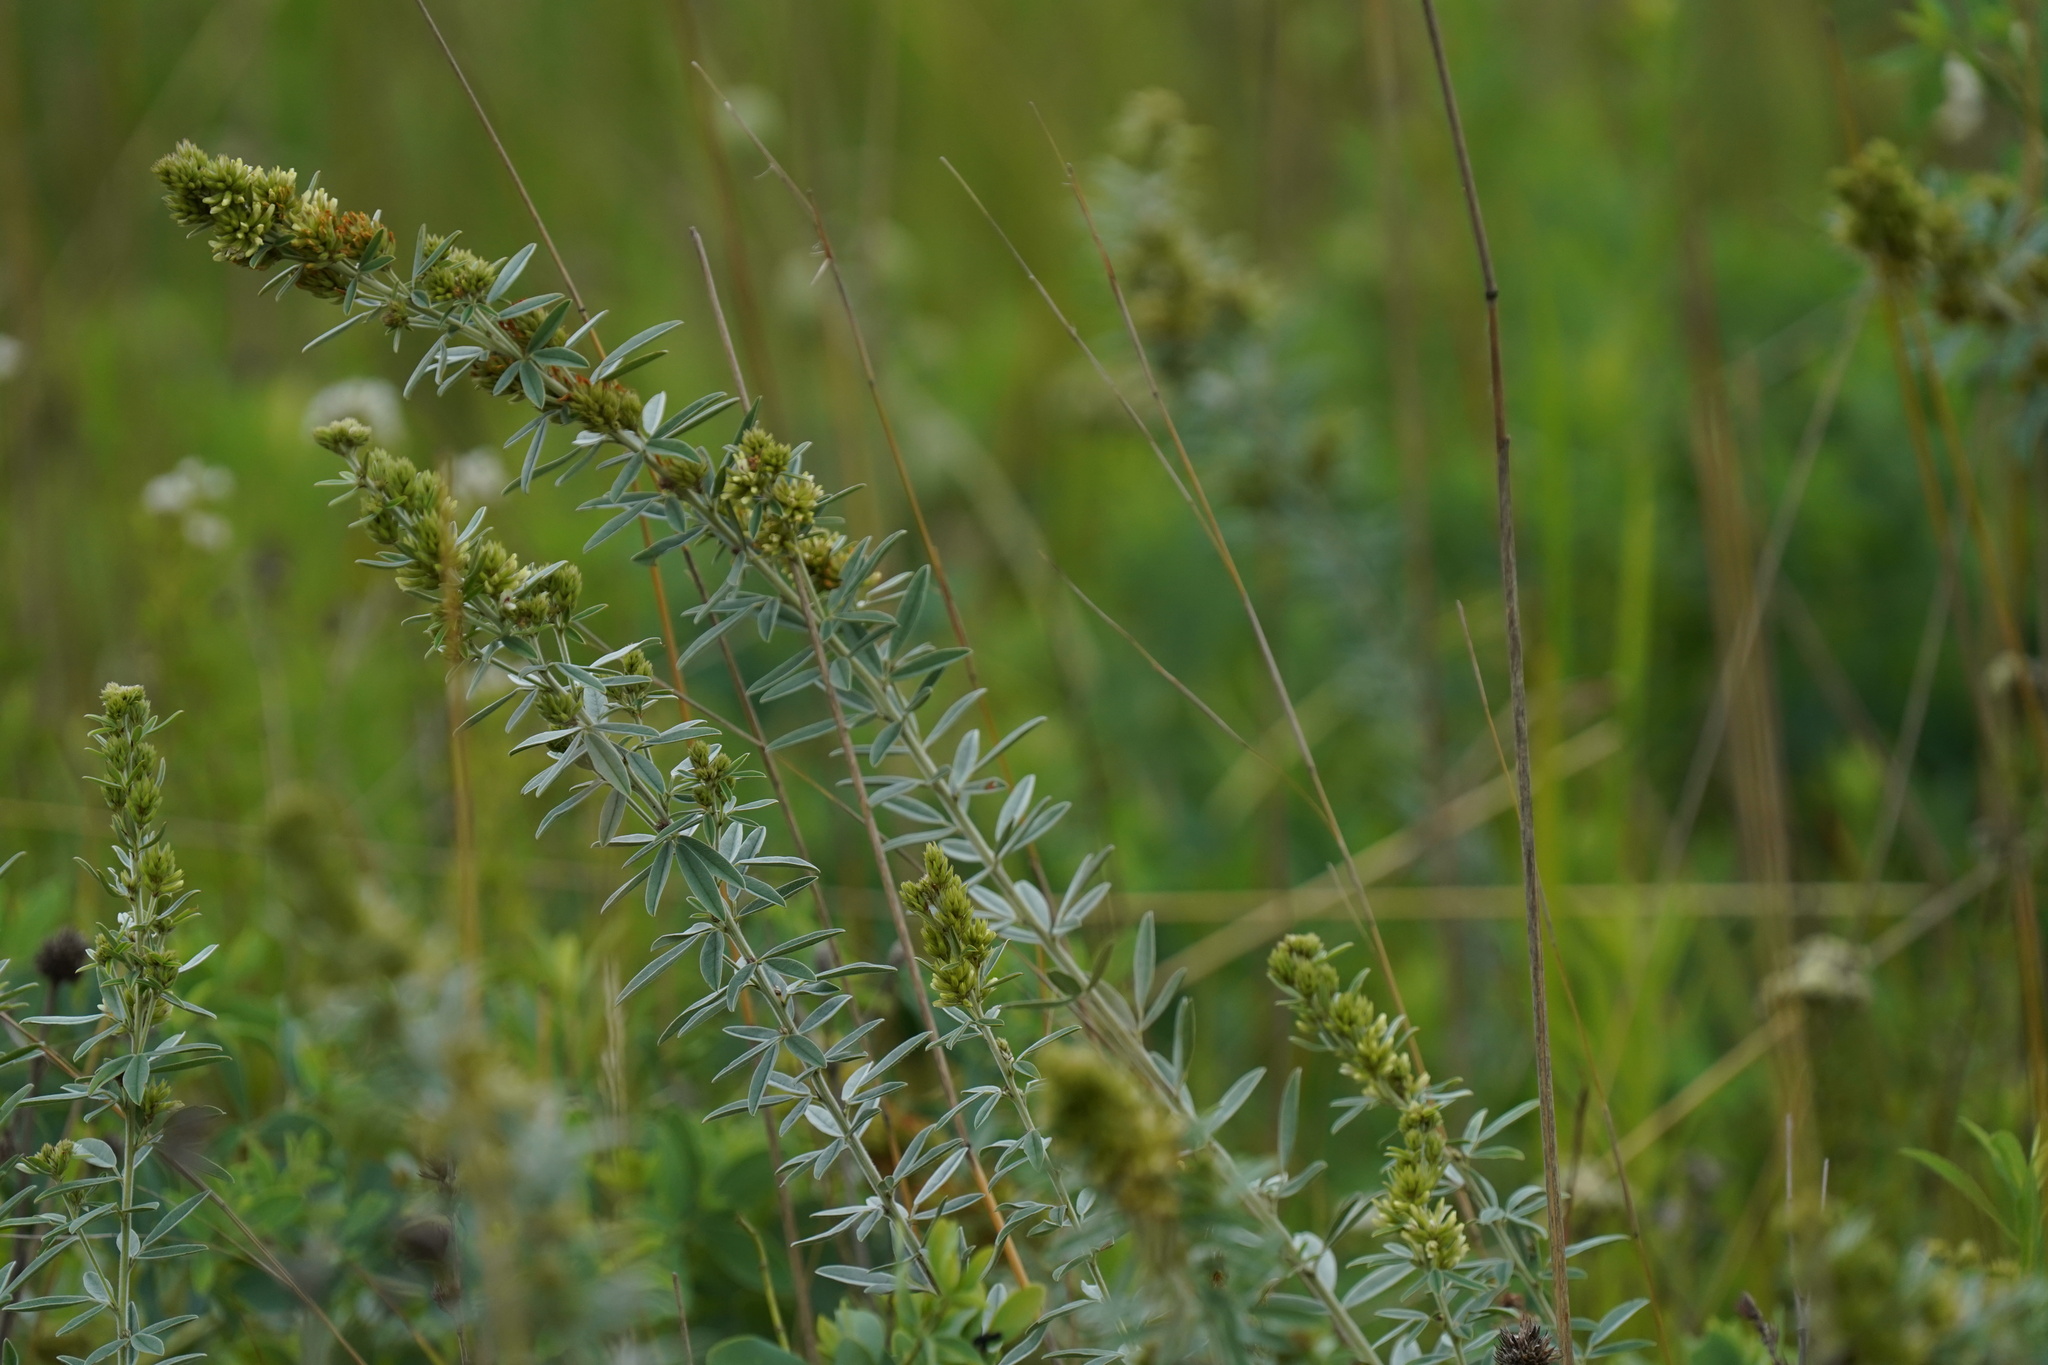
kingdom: Plantae
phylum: Tracheophyta
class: Magnoliopsida
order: Fabales
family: Fabaceae
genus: Lespedeza
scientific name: Lespedeza capitata
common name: Dusty clover
